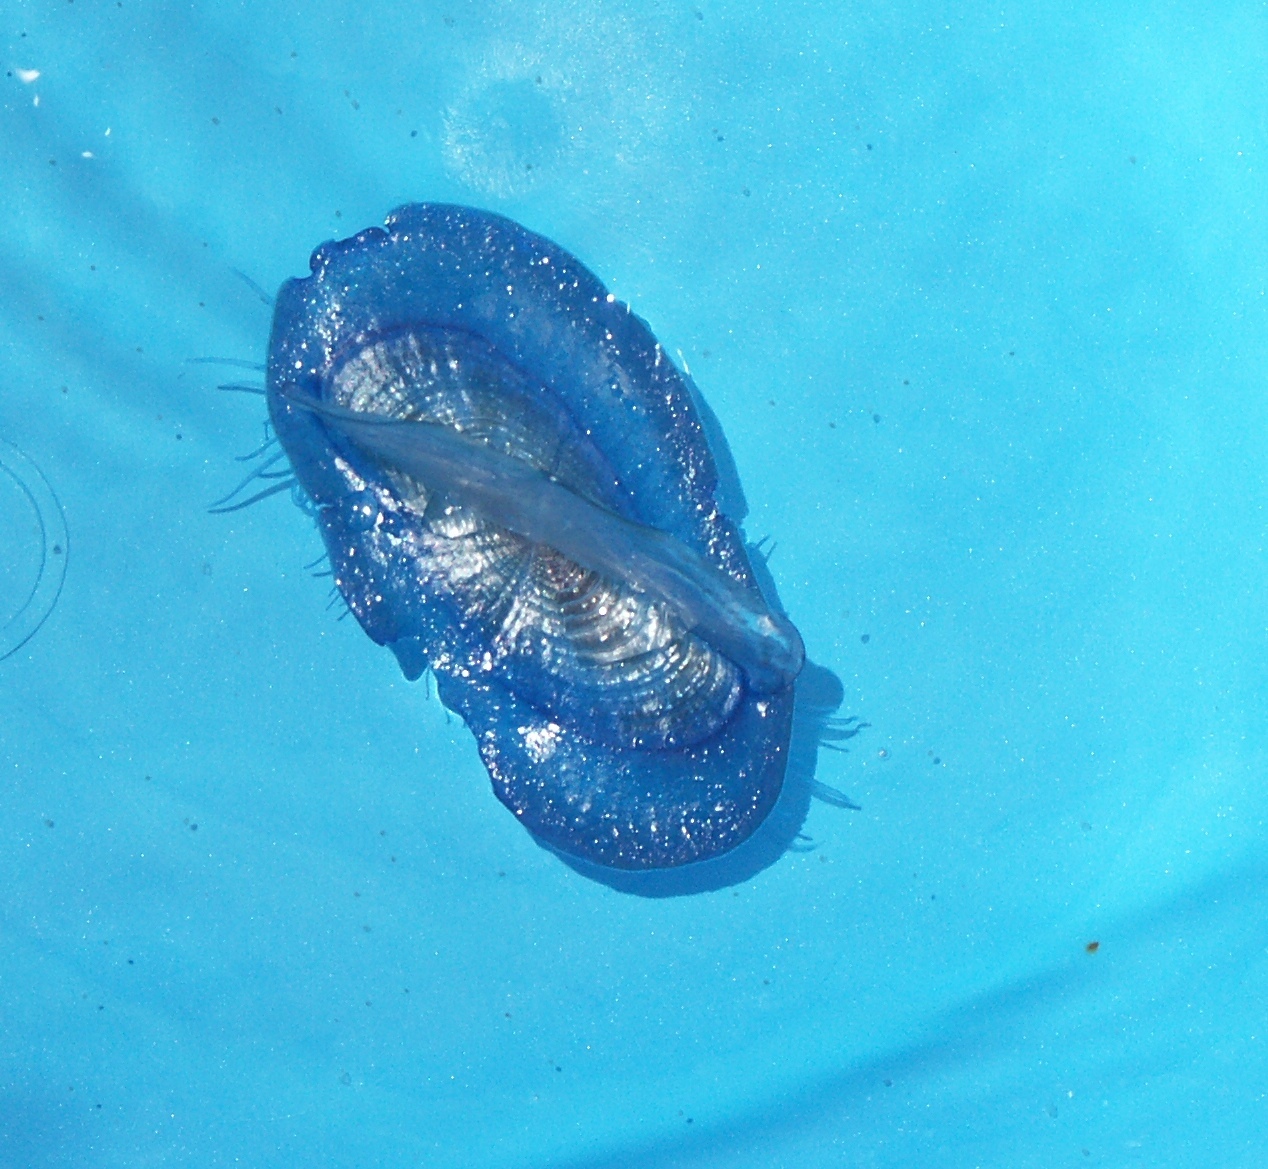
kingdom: Animalia
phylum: Cnidaria
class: Hydrozoa
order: Anthoathecata
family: Porpitidae
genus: Velella
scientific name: Velella velella
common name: By-the-wind-sailor
